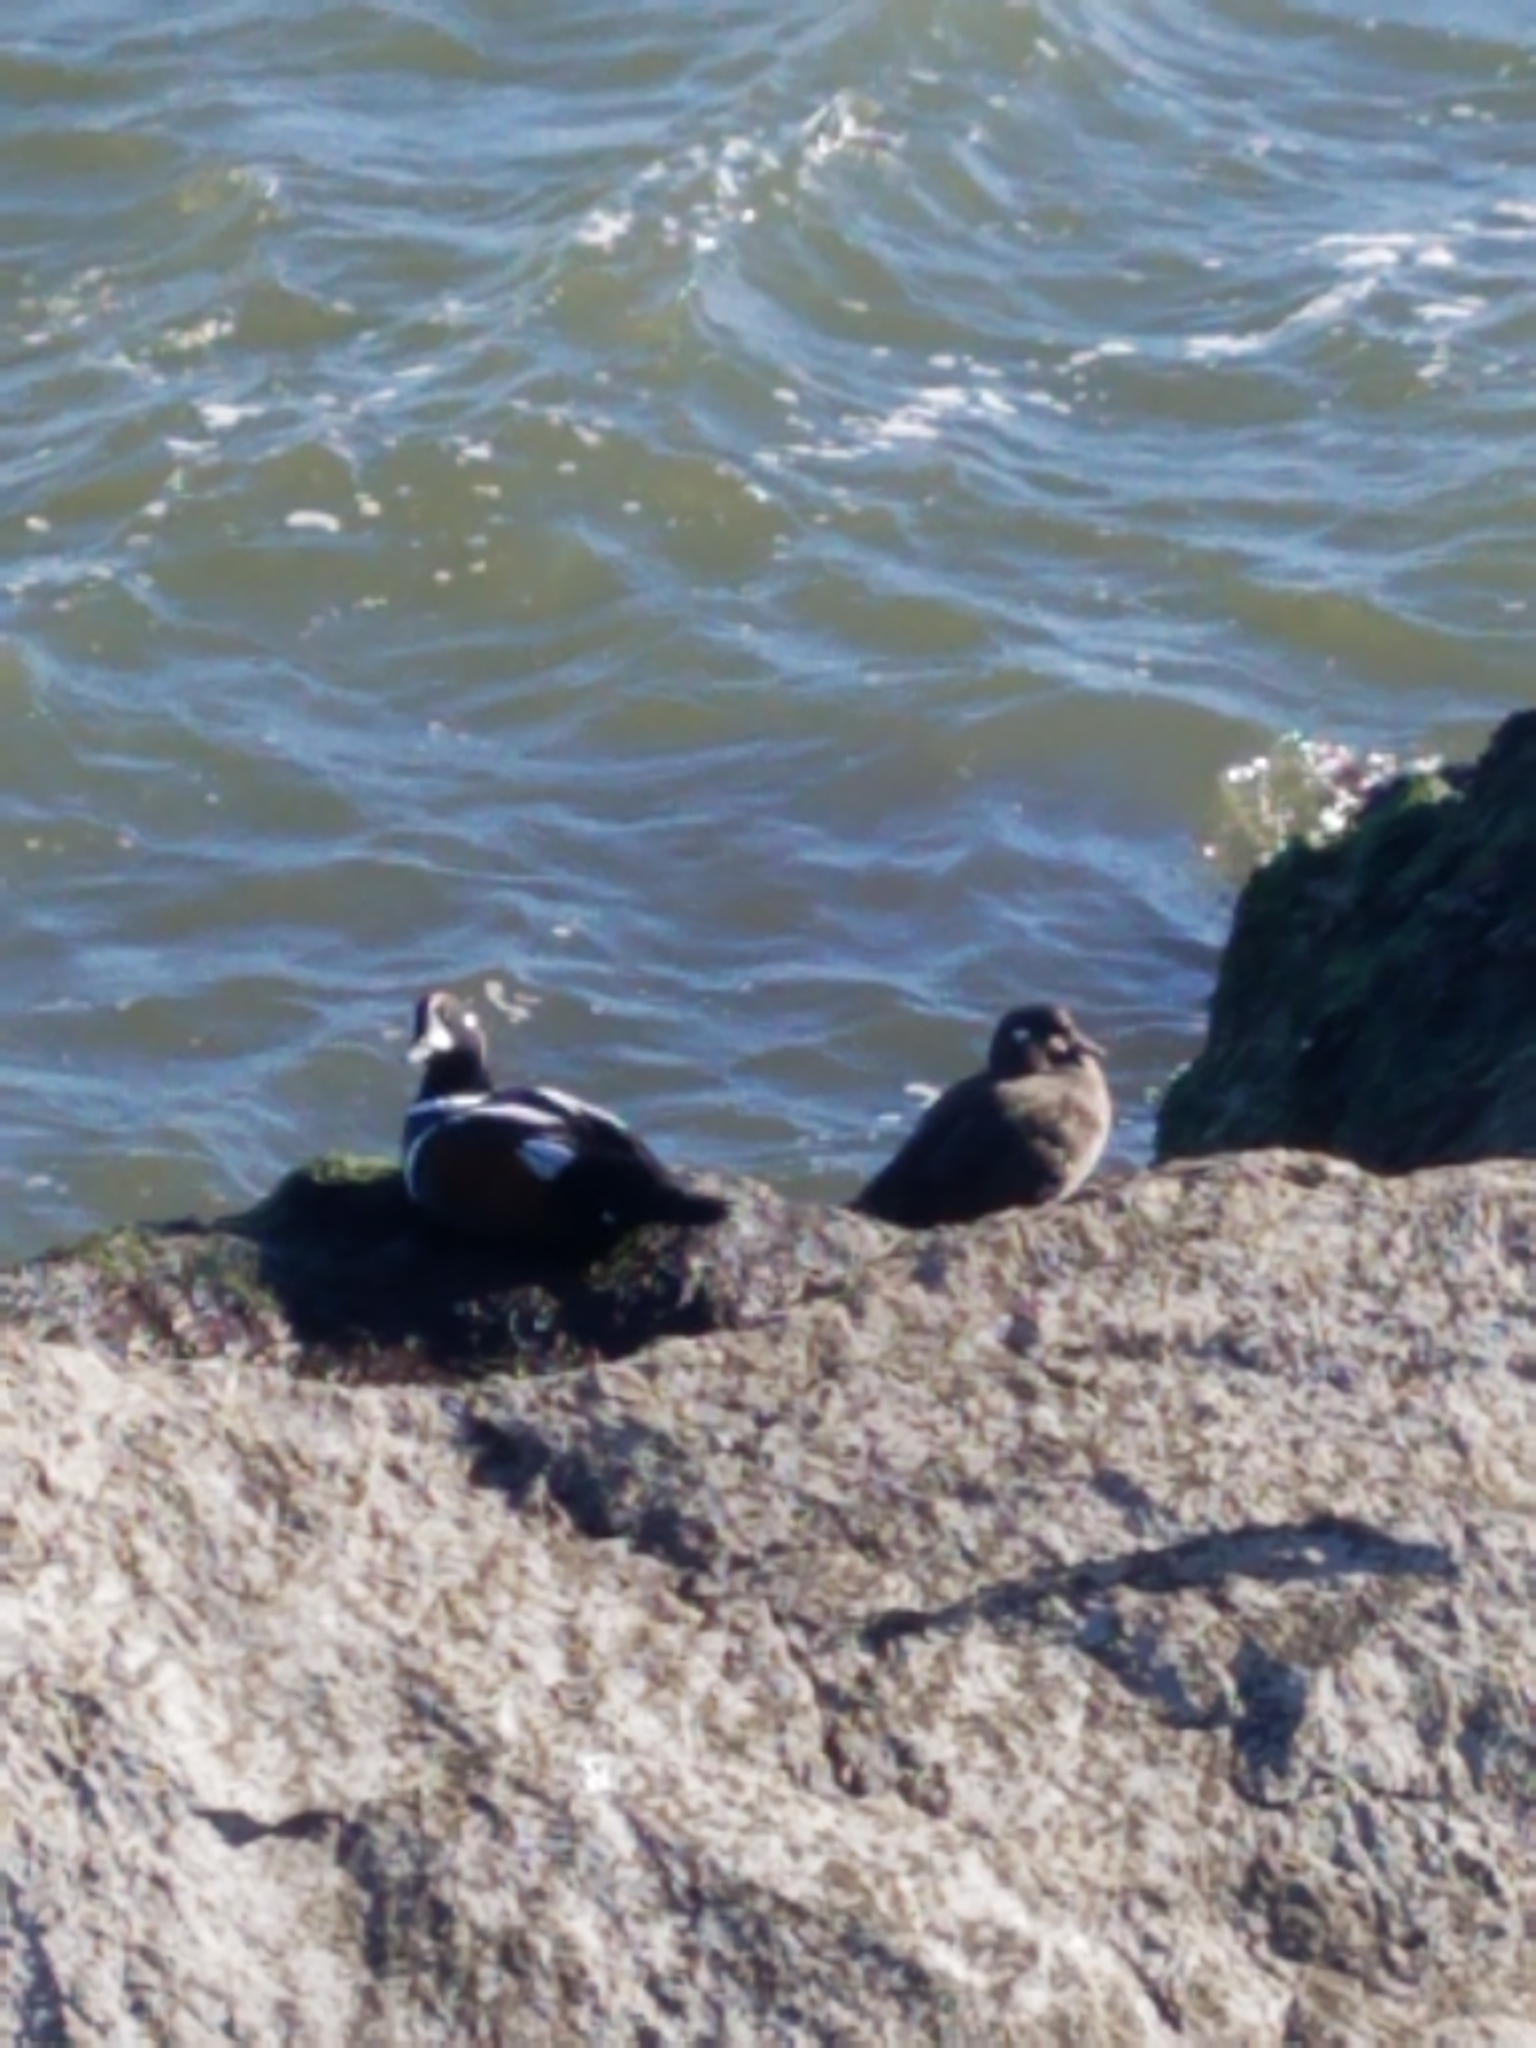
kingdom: Animalia
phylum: Chordata
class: Aves
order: Anseriformes
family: Anatidae
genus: Histrionicus
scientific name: Histrionicus histrionicus
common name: Harlequin duck
